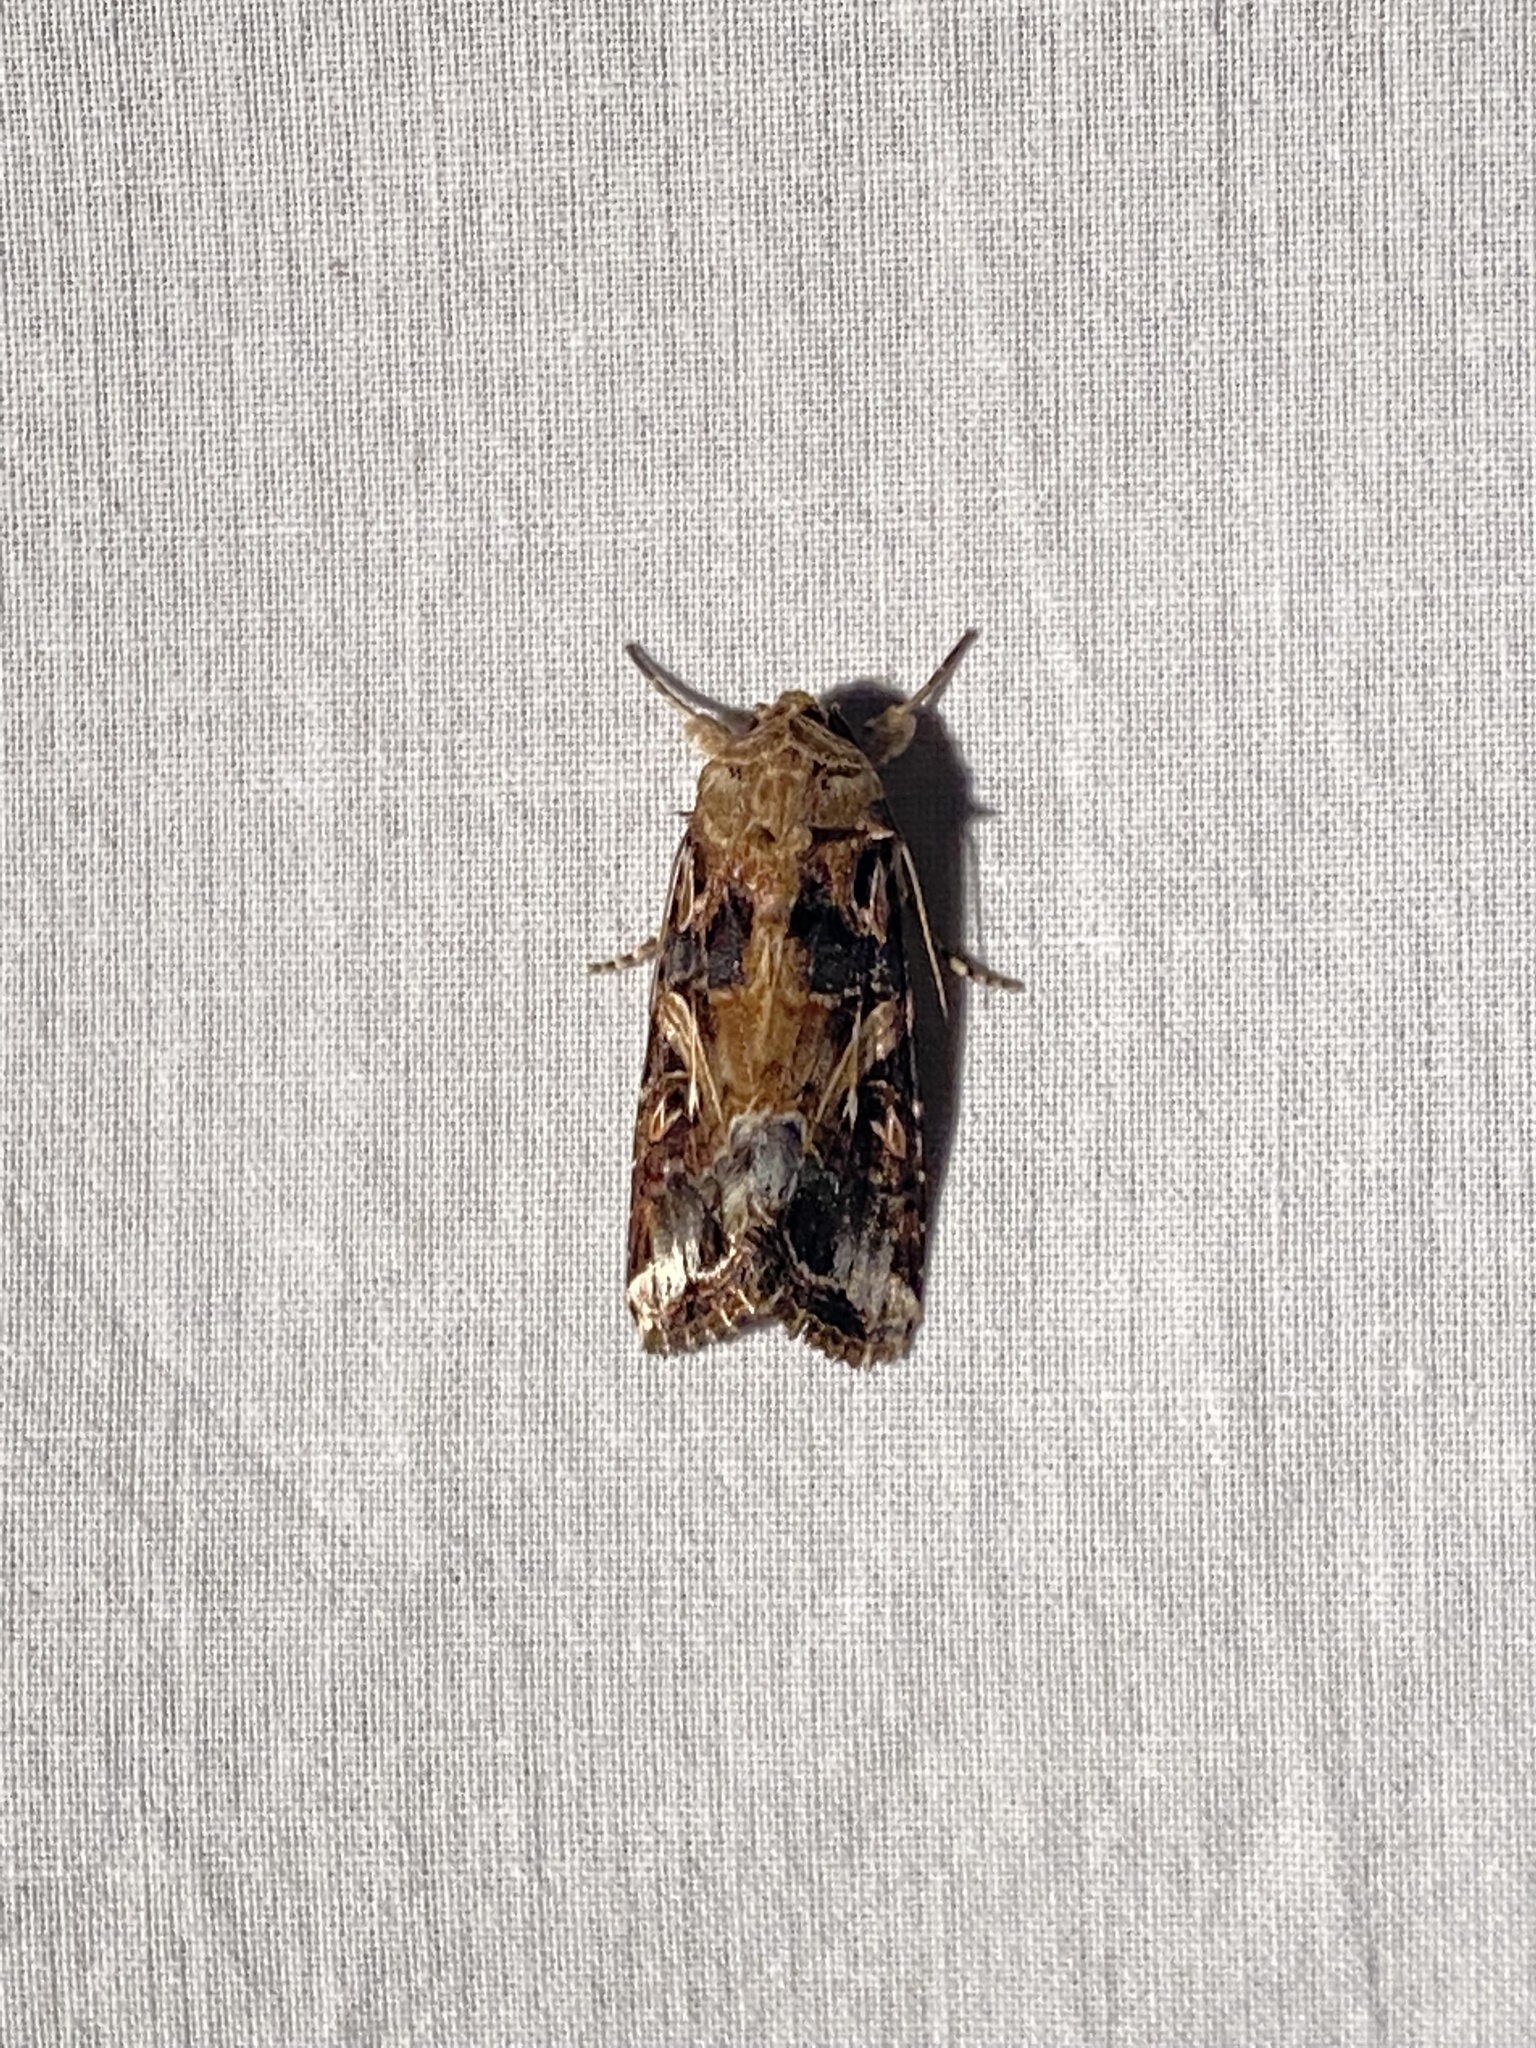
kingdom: Animalia
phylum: Arthropoda
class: Insecta
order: Lepidoptera
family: Noctuidae
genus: Spodoptera
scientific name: Spodoptera ornithogalli
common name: Yellow-striped armyworm
